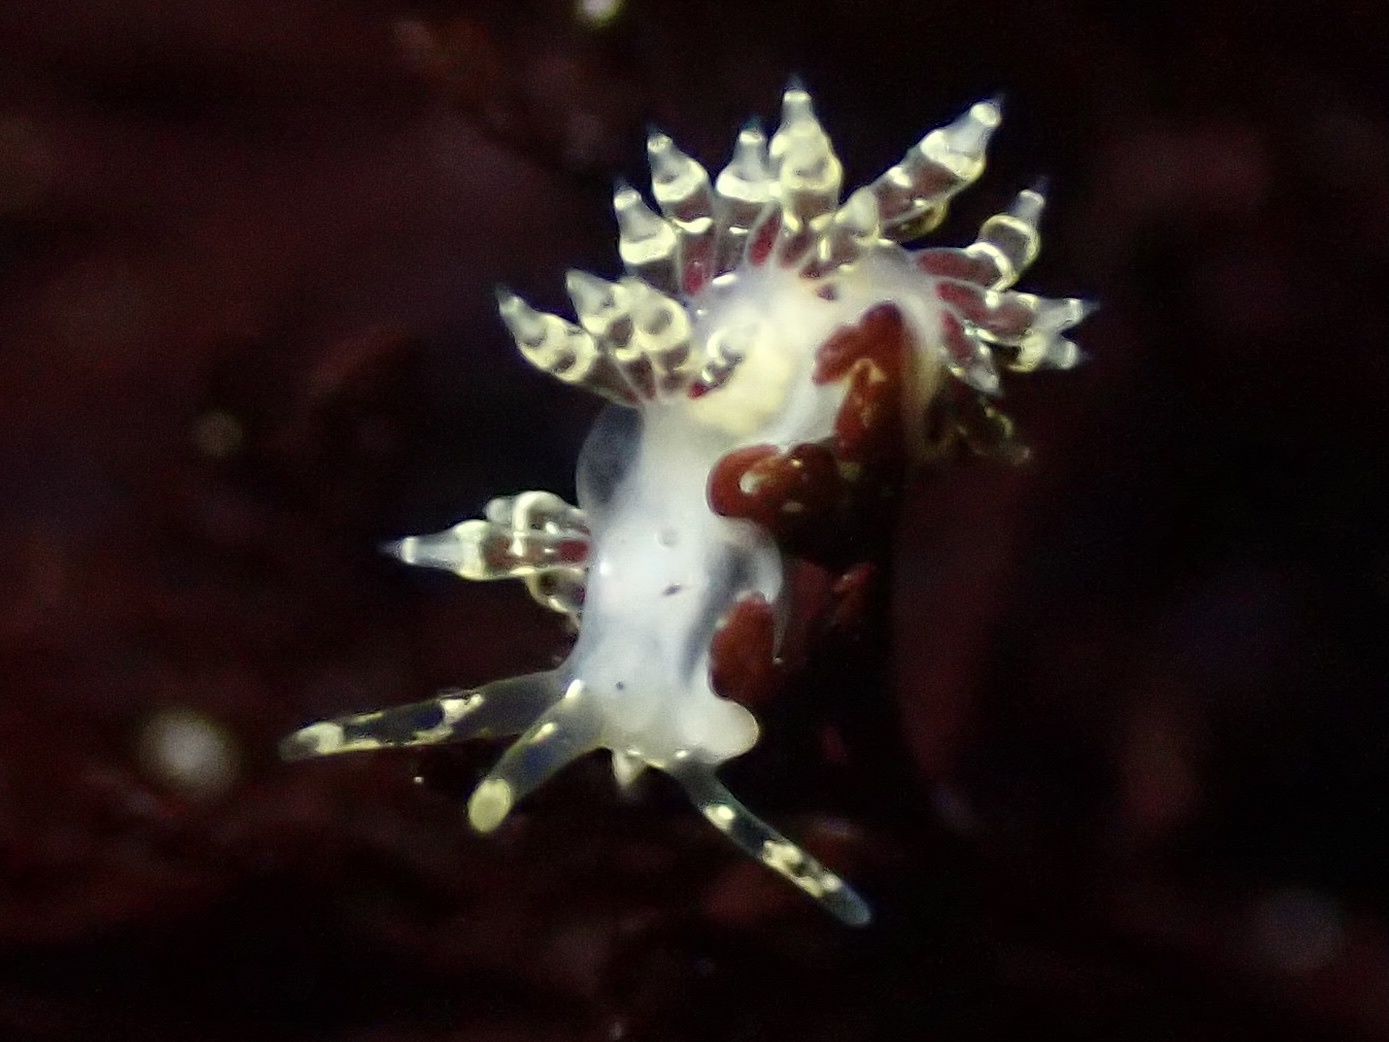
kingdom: Animalia
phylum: Mollusca
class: Gastropoda
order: Nudibranchia
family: Abronicidae
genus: Abronica
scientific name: Abronica abronia
